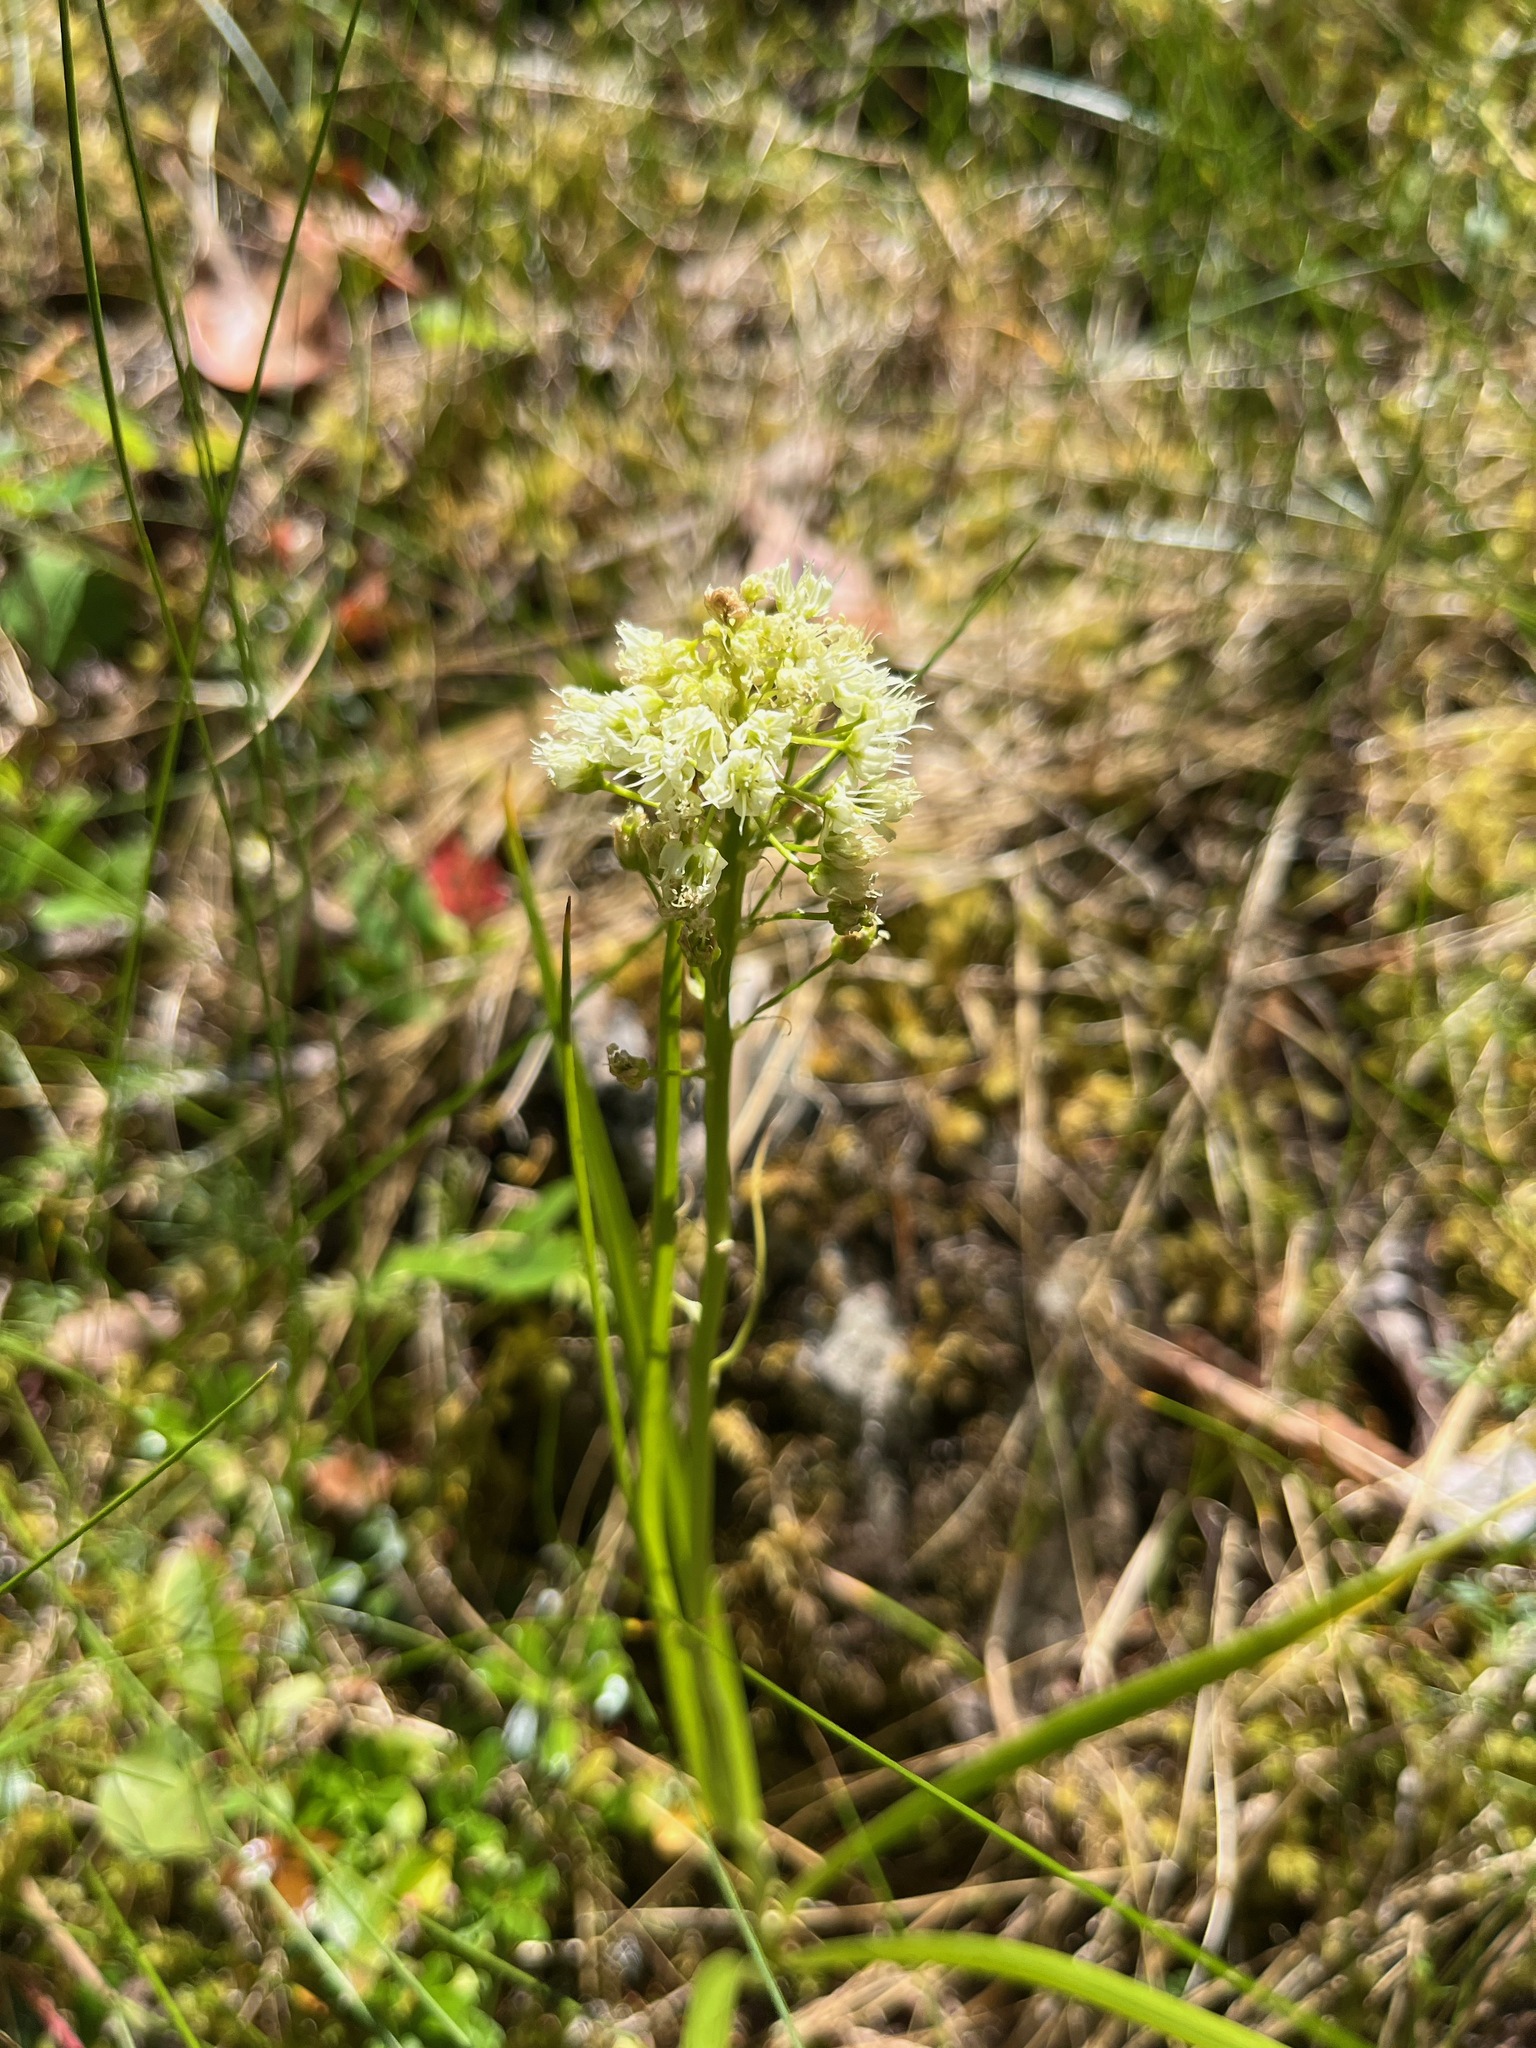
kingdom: Plantae
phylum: Tracheophyta
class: Liliopsida
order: Liliales
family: Melanthiaceae
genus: Toxicoscordion
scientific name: Toxicoscordion venenosum
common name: Meadow death camas
